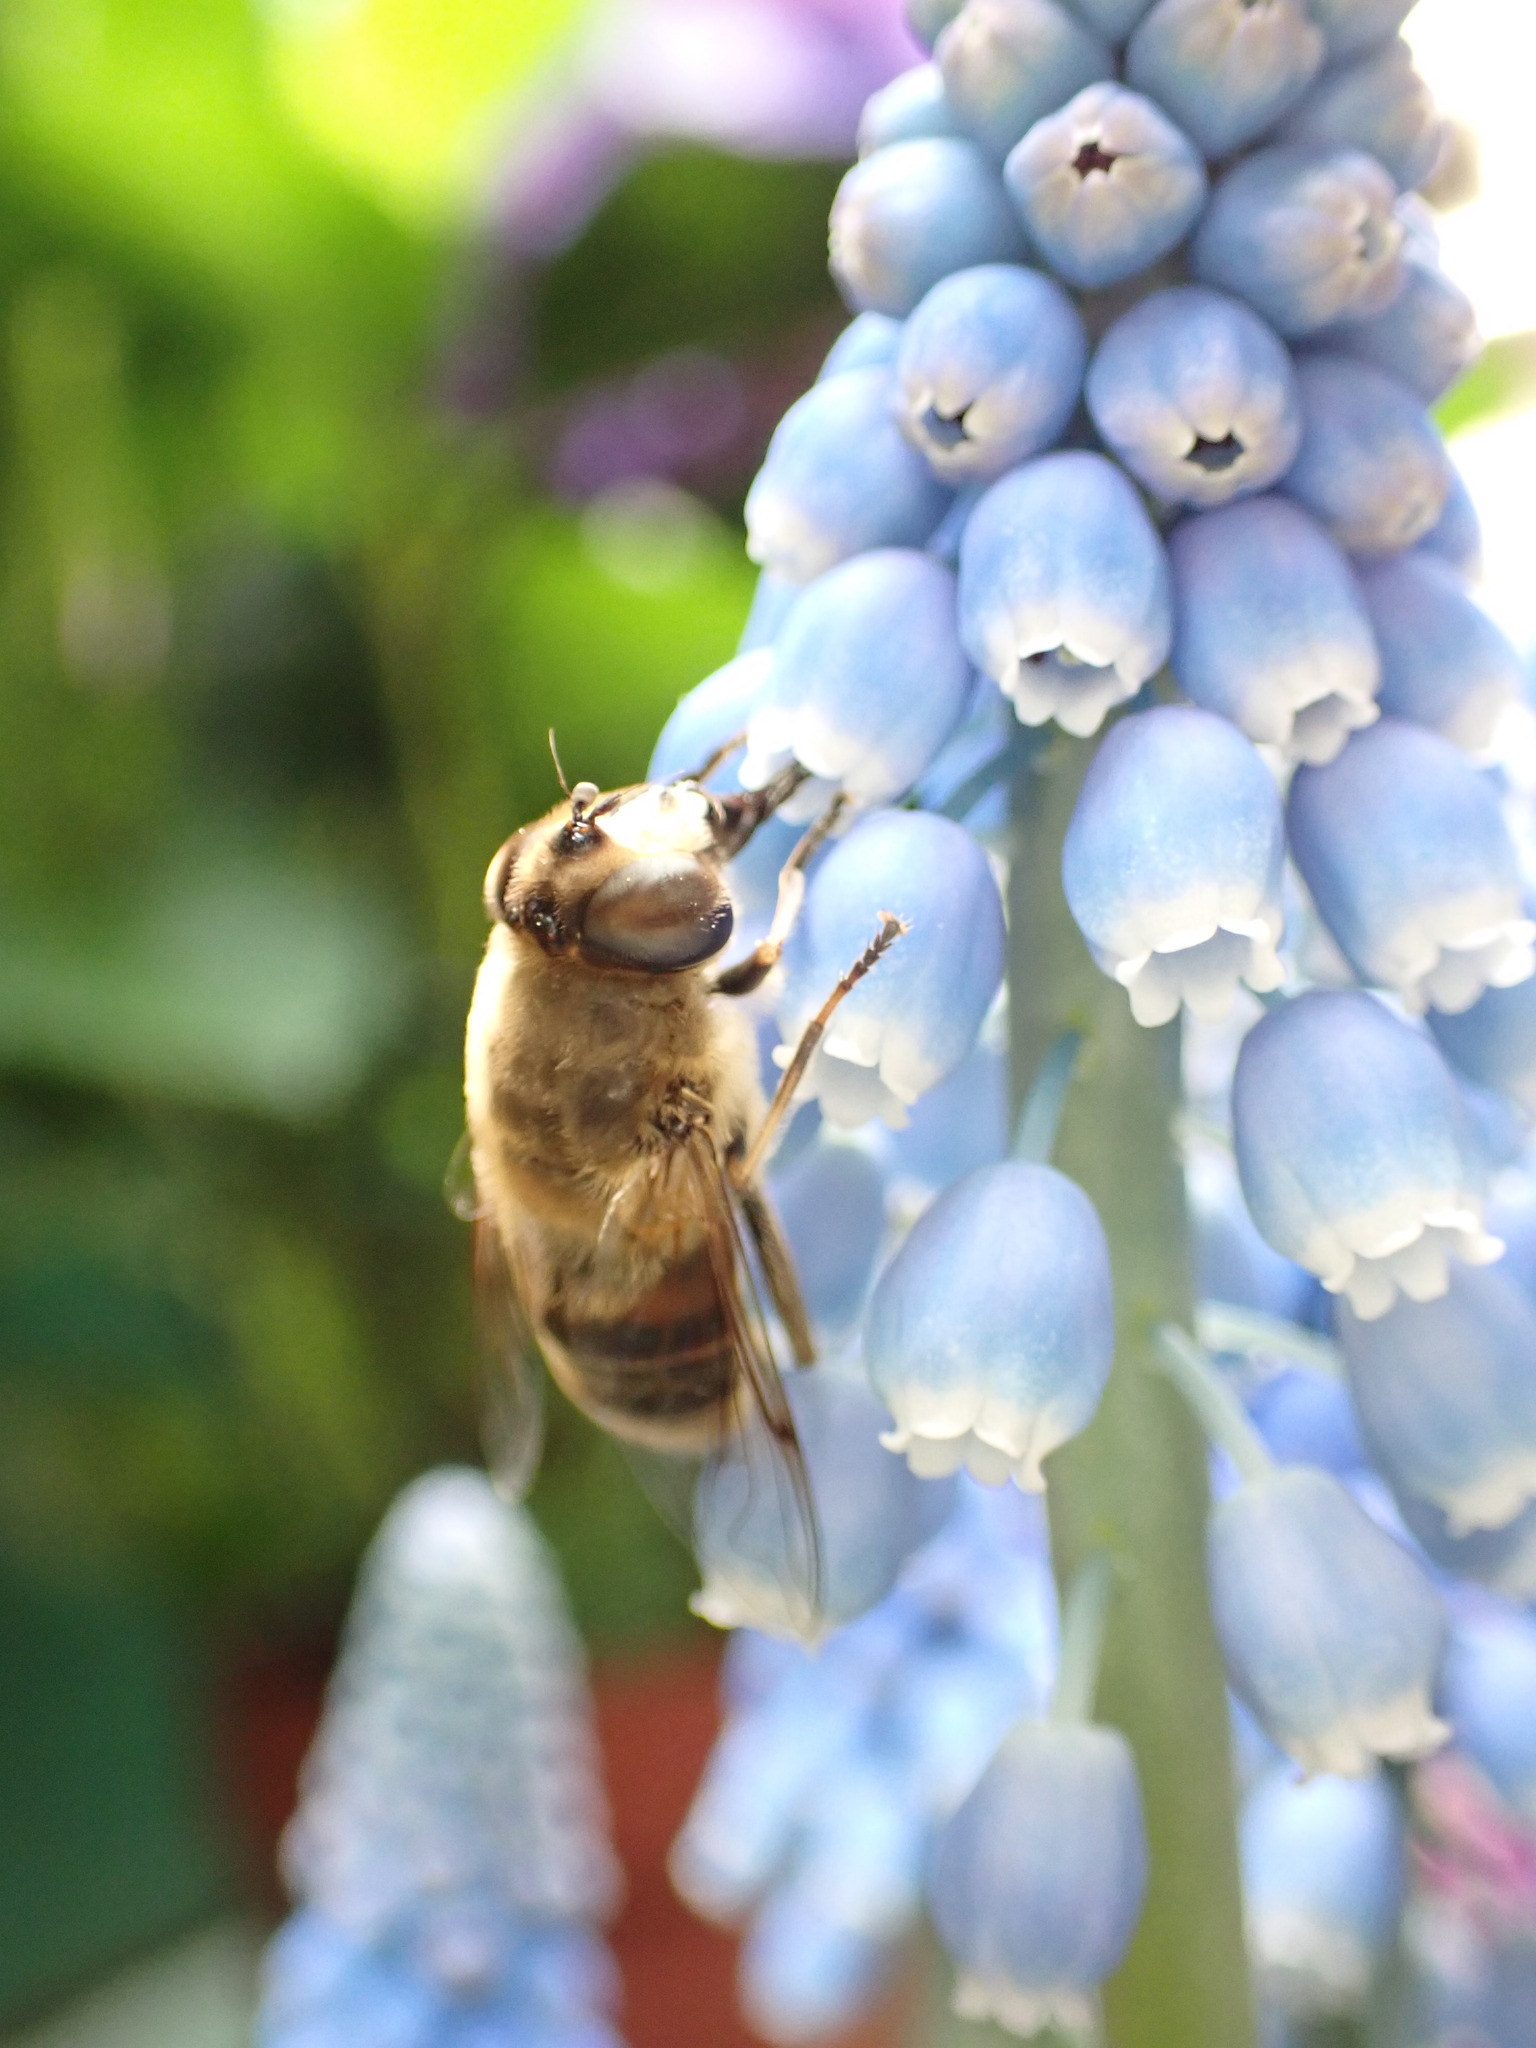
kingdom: Animalia
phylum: Arthropoda
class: Insecta
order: Diptera
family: Syrphidae
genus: Eristalis
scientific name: Eristalis tenax
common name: Drone fly
